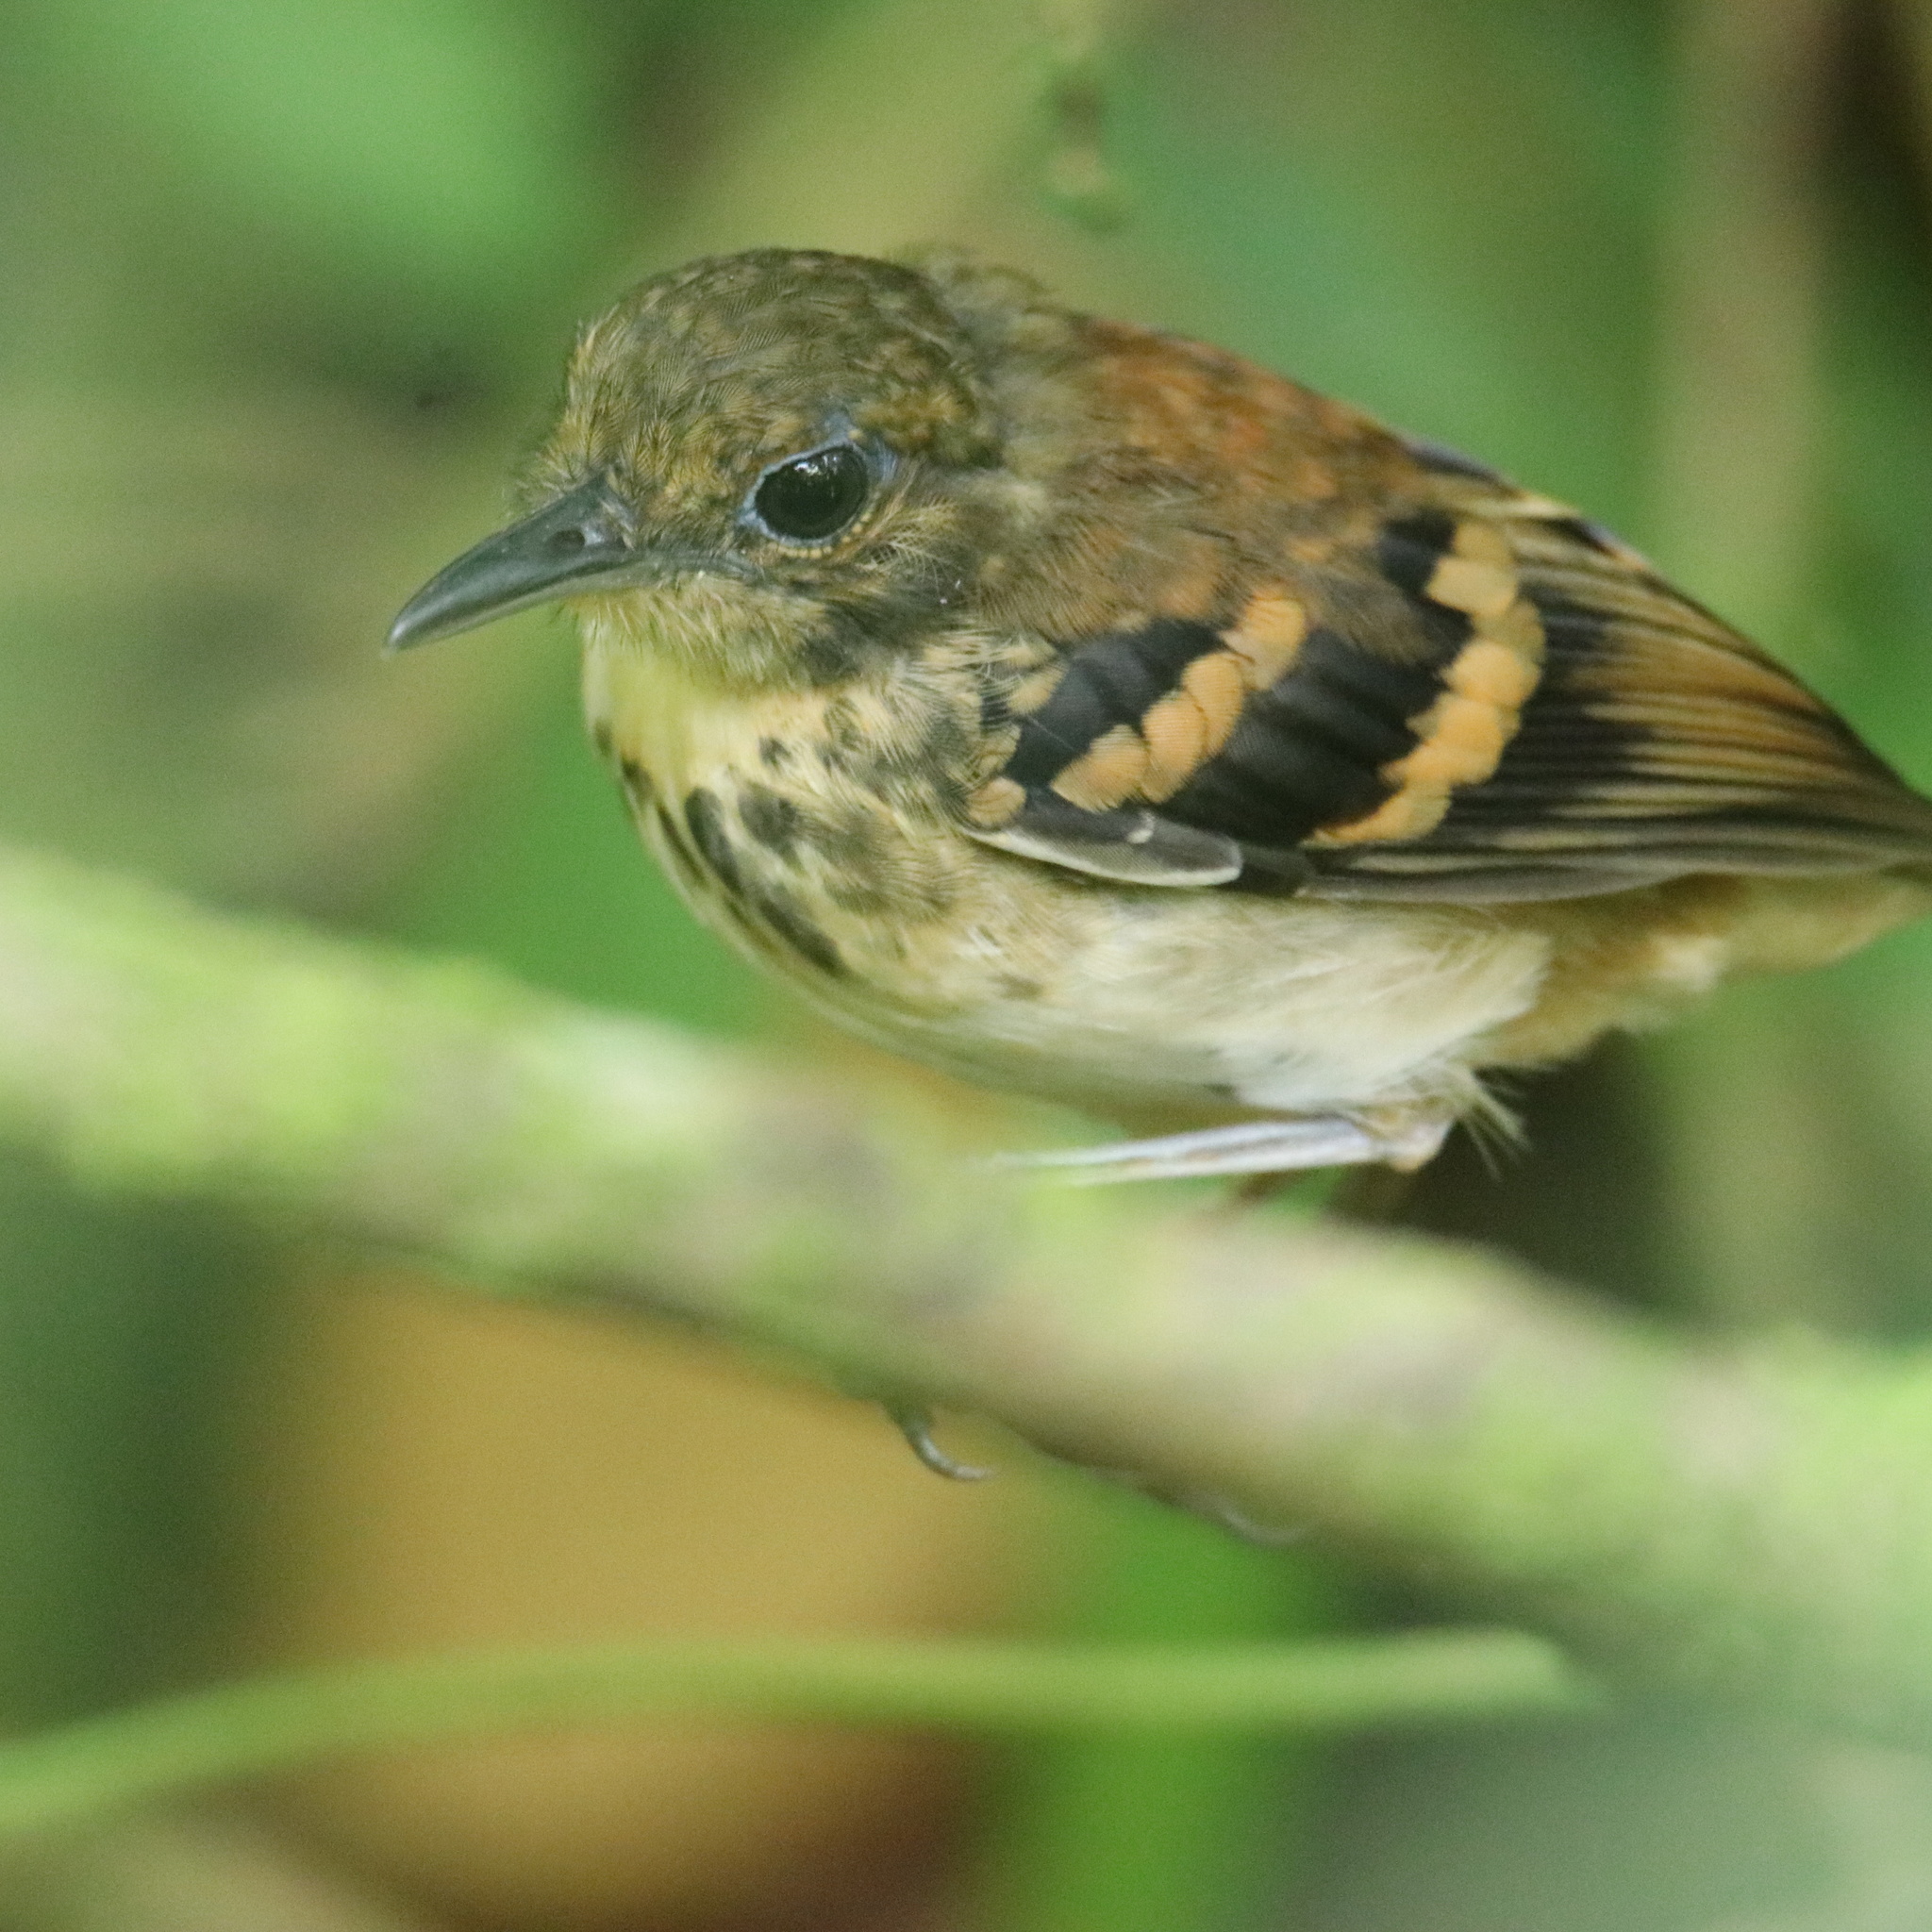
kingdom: Animalia
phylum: Chordata
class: Aves
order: Passeriformes
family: Thamnophilidae
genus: Hylophylax
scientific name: Hylophylax naevioides
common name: Spotted antbird
